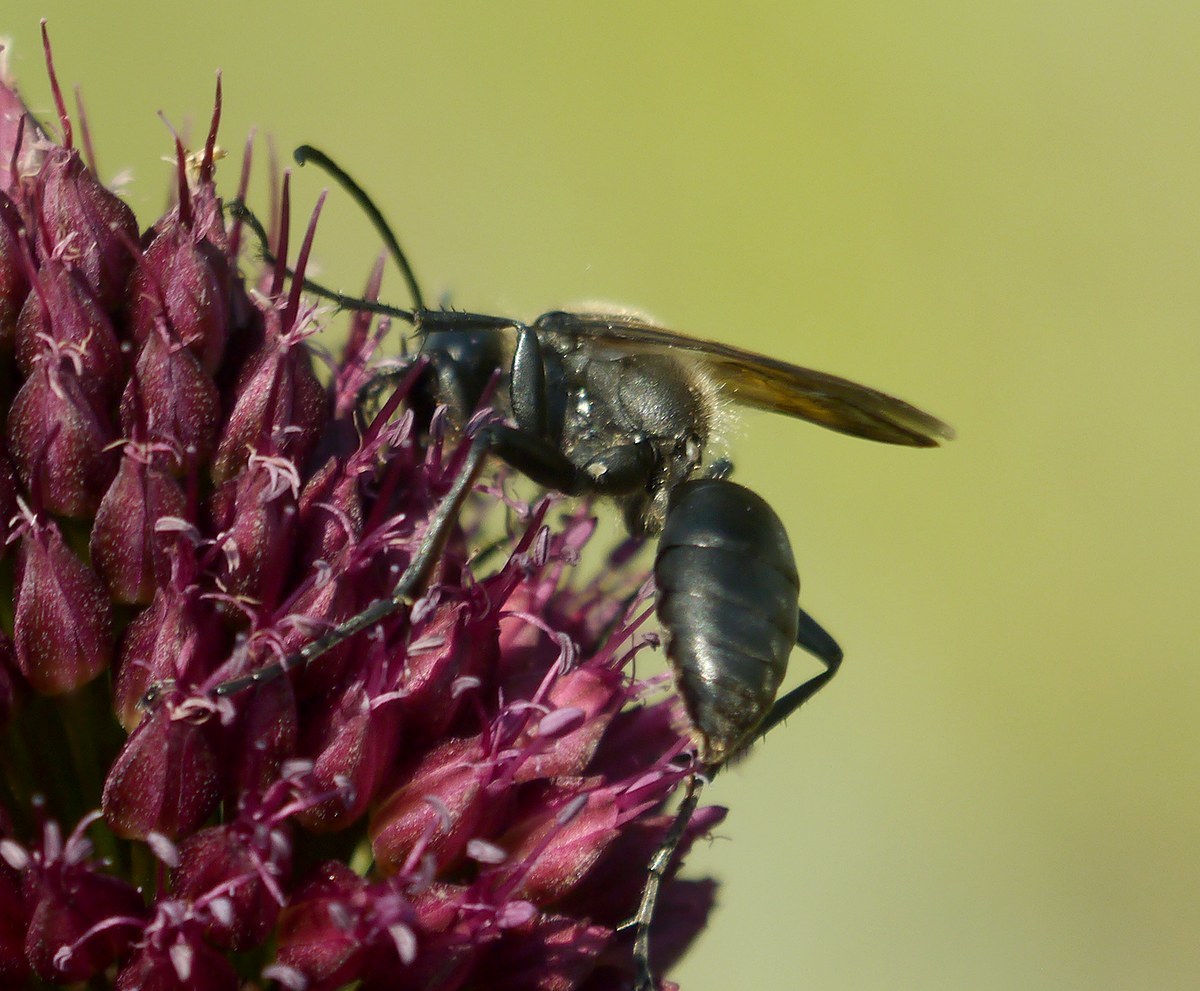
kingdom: Animalia
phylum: Arthropoda
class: Insecta
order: Hymenoptera
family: Sphecidae
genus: Sphex
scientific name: Sphex leuconotus
